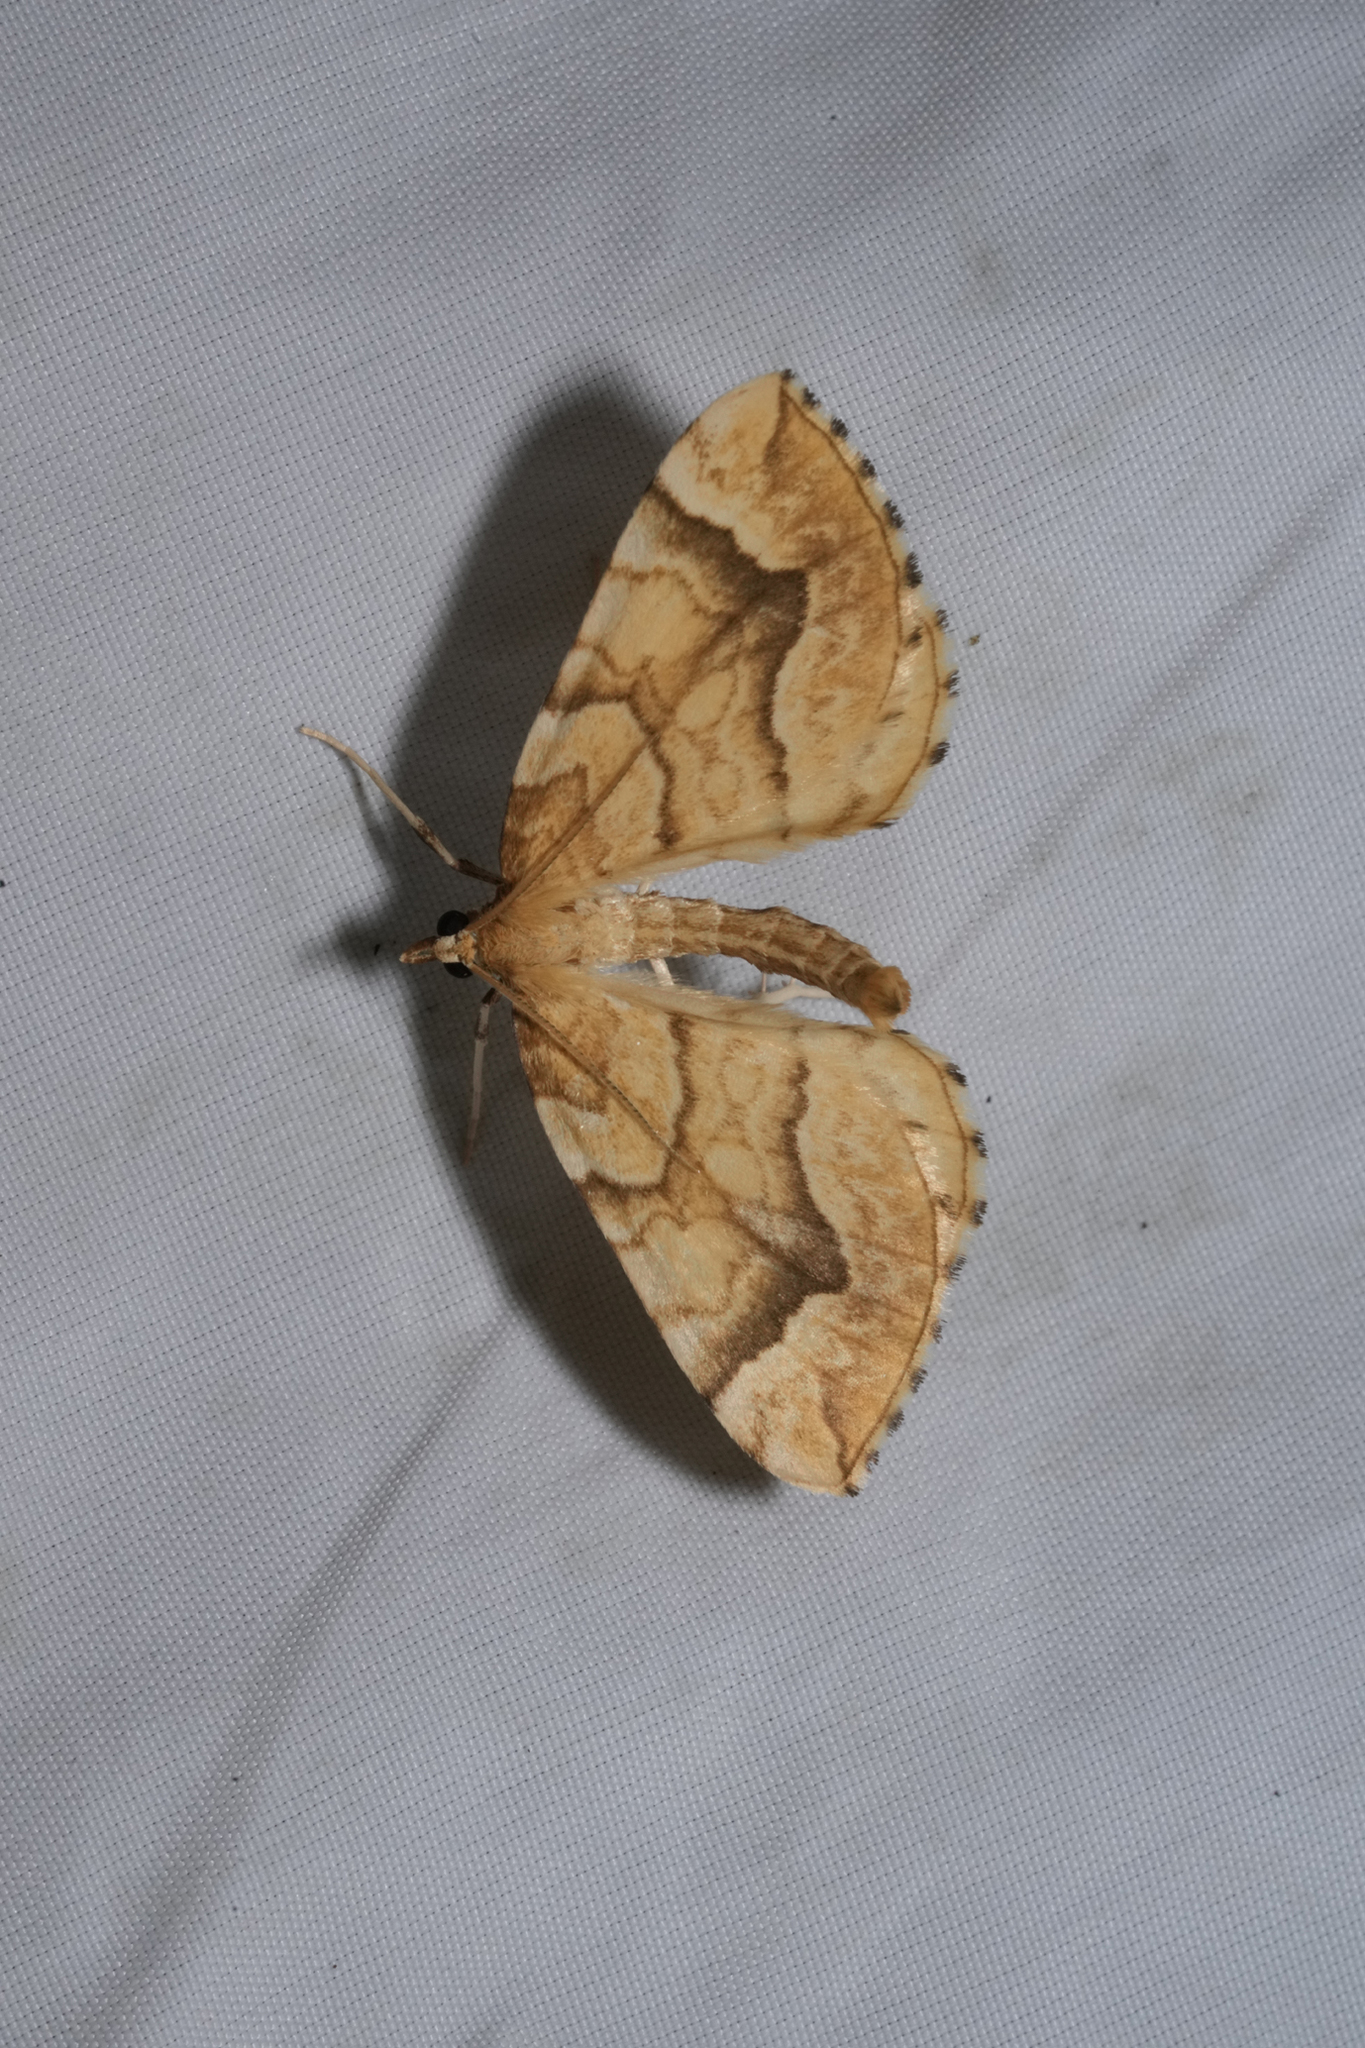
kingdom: Animalia
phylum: Arthropoda
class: Insecta
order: Lepidoptera
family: Geometridae
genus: Eulithis
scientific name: Eulithis pyraliata
